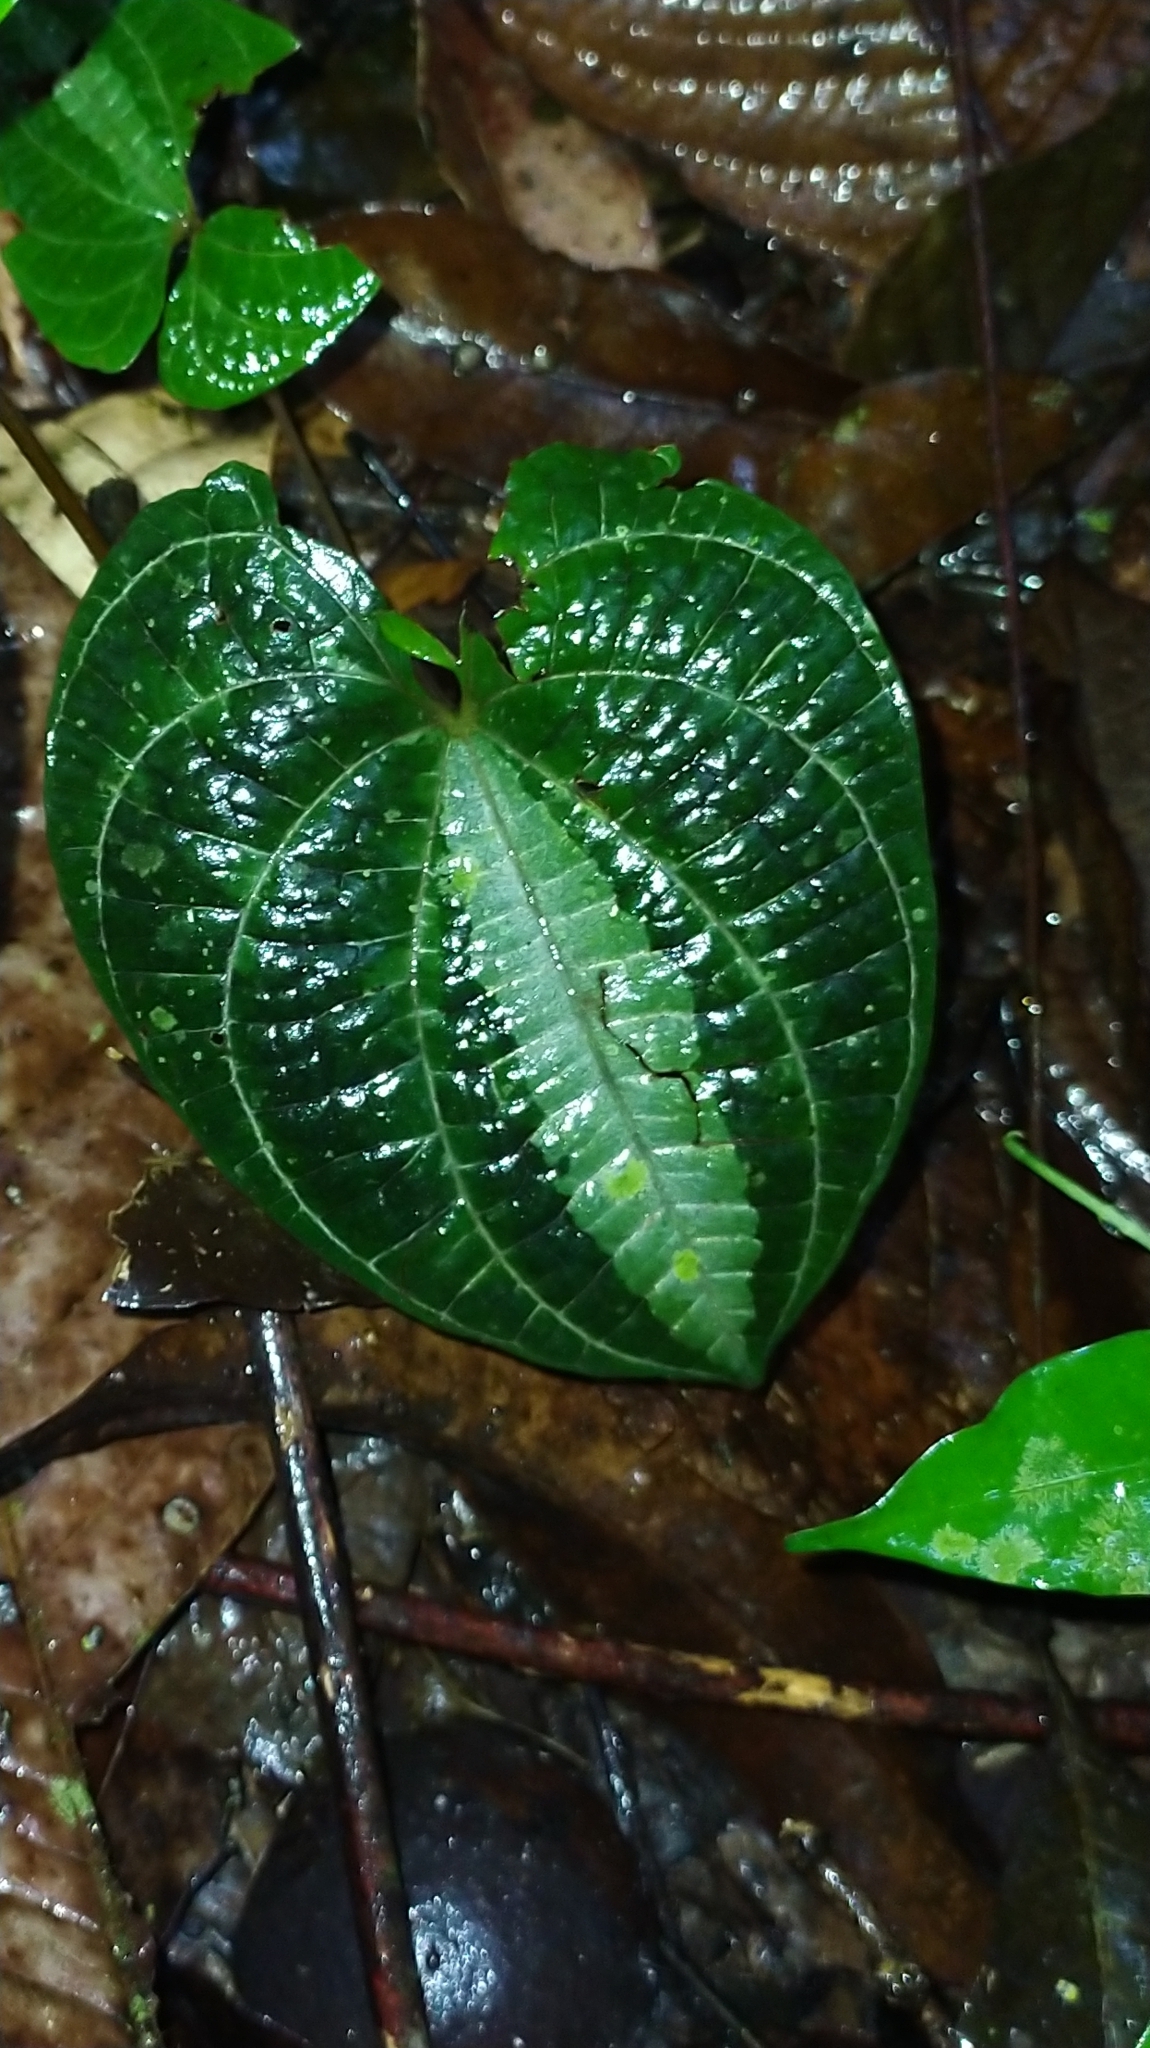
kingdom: Plantae
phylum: Tracheophyta
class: Liliopsida
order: Dioscoreales
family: Dioscoreaceae
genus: Dioscorea
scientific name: Dioscorea dodecaneura
